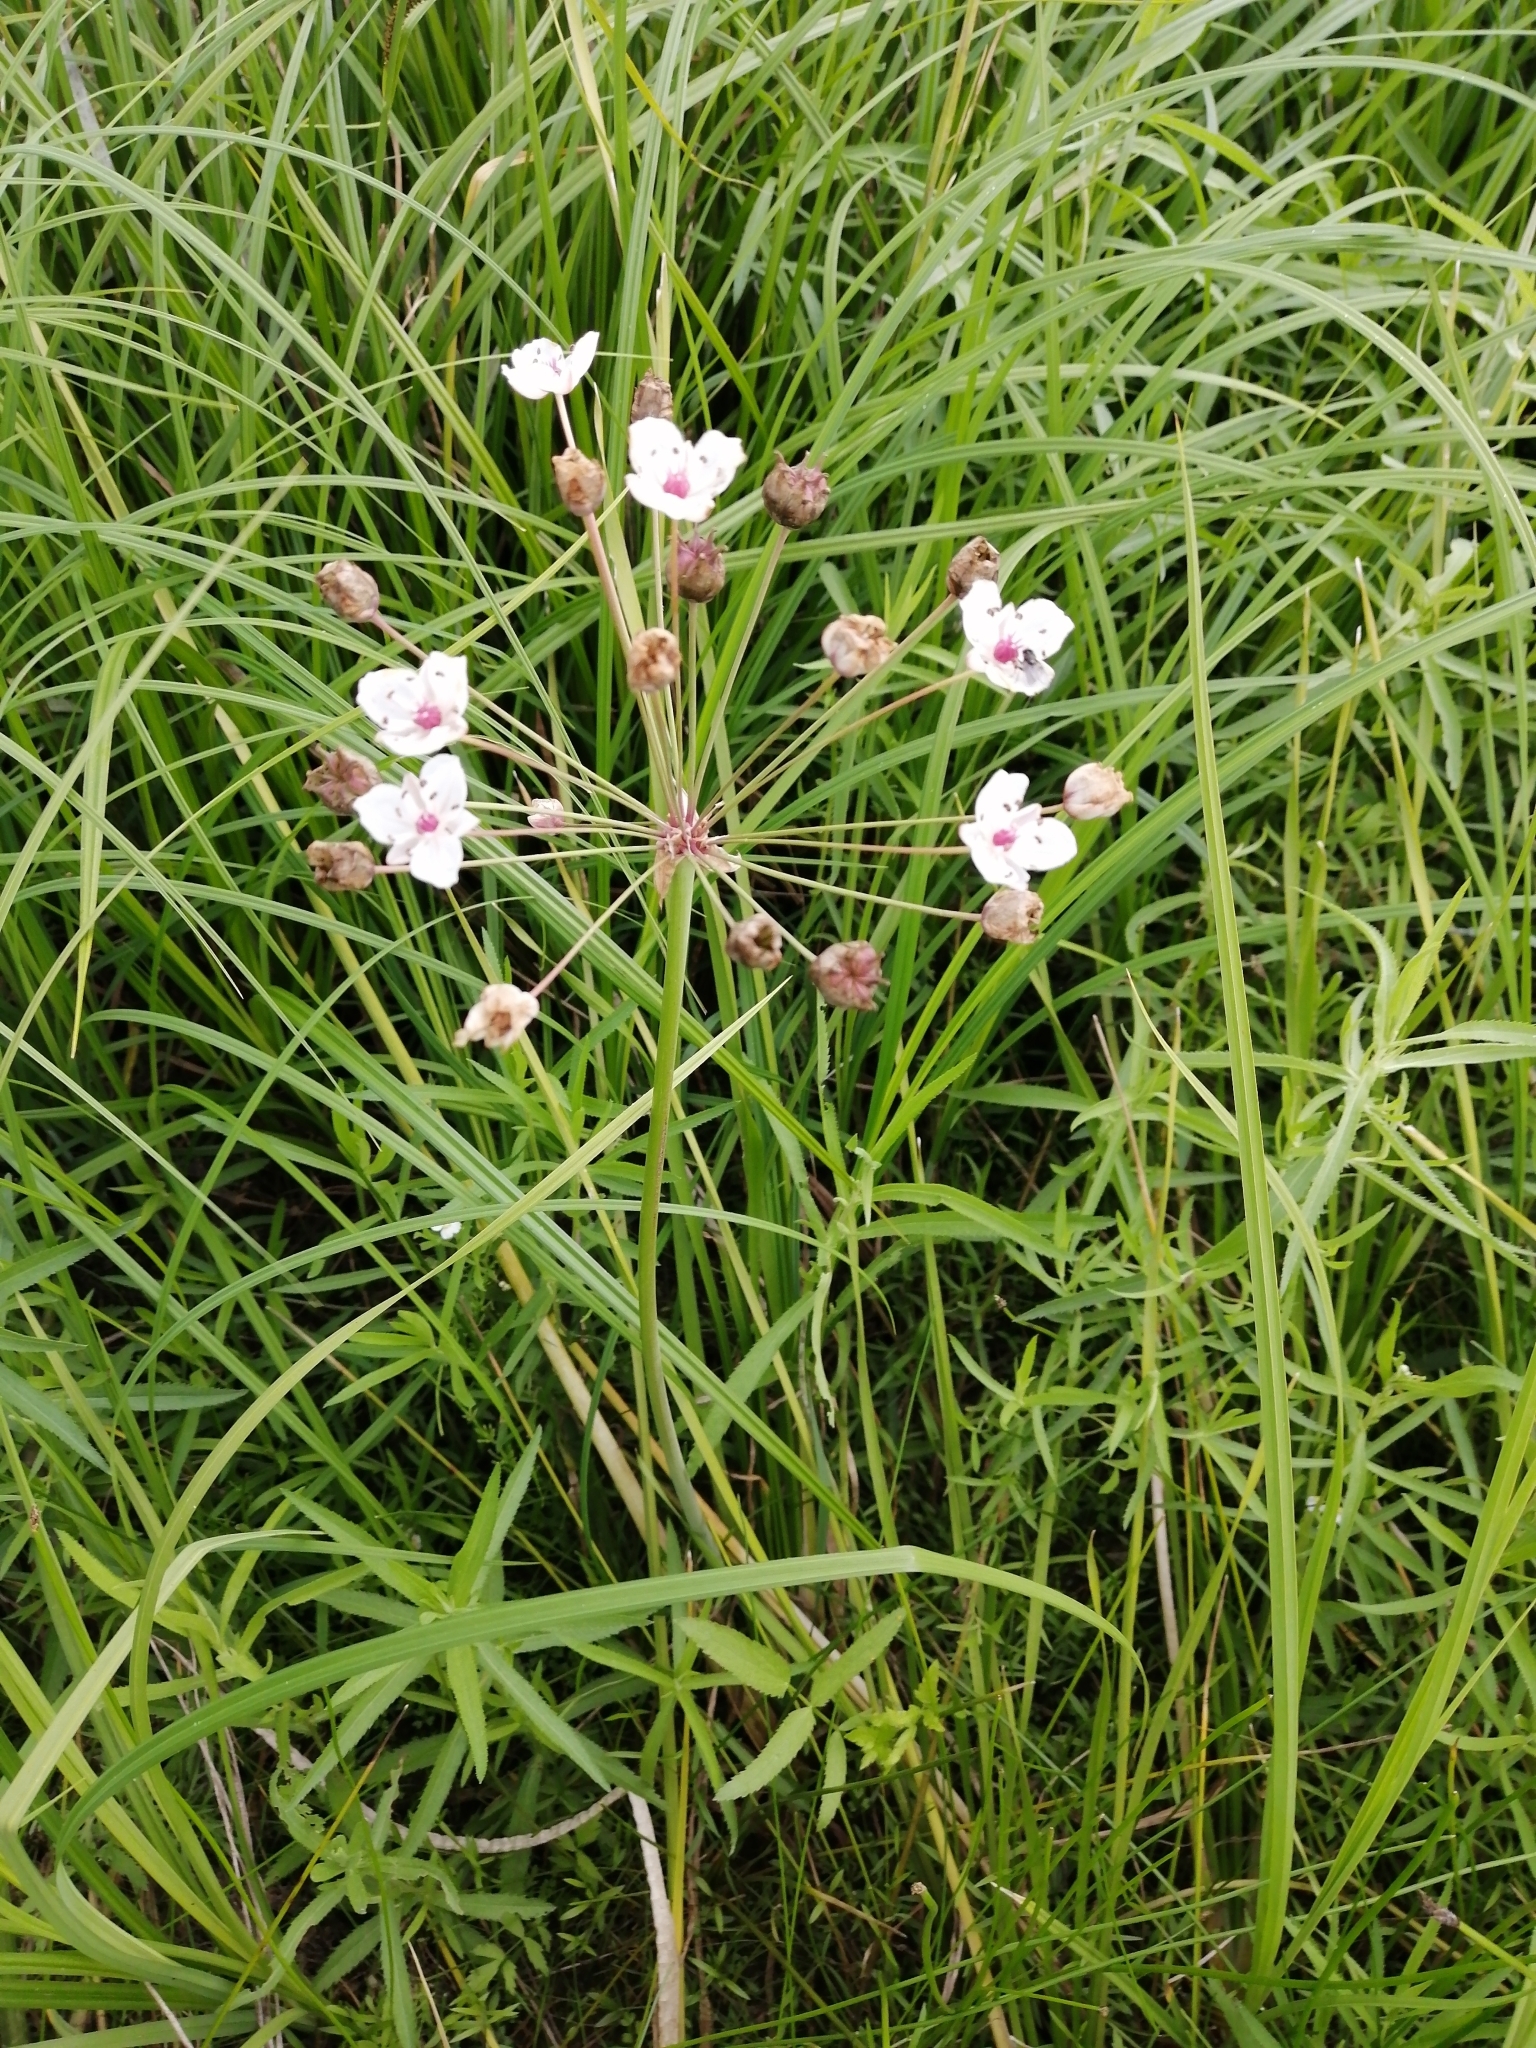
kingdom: Plantae
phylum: Tracheophyta
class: Liliopsida
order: Alismatales
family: Butomaceae
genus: Butomus
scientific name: Butomus umbellatus
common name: Flowering-rush
